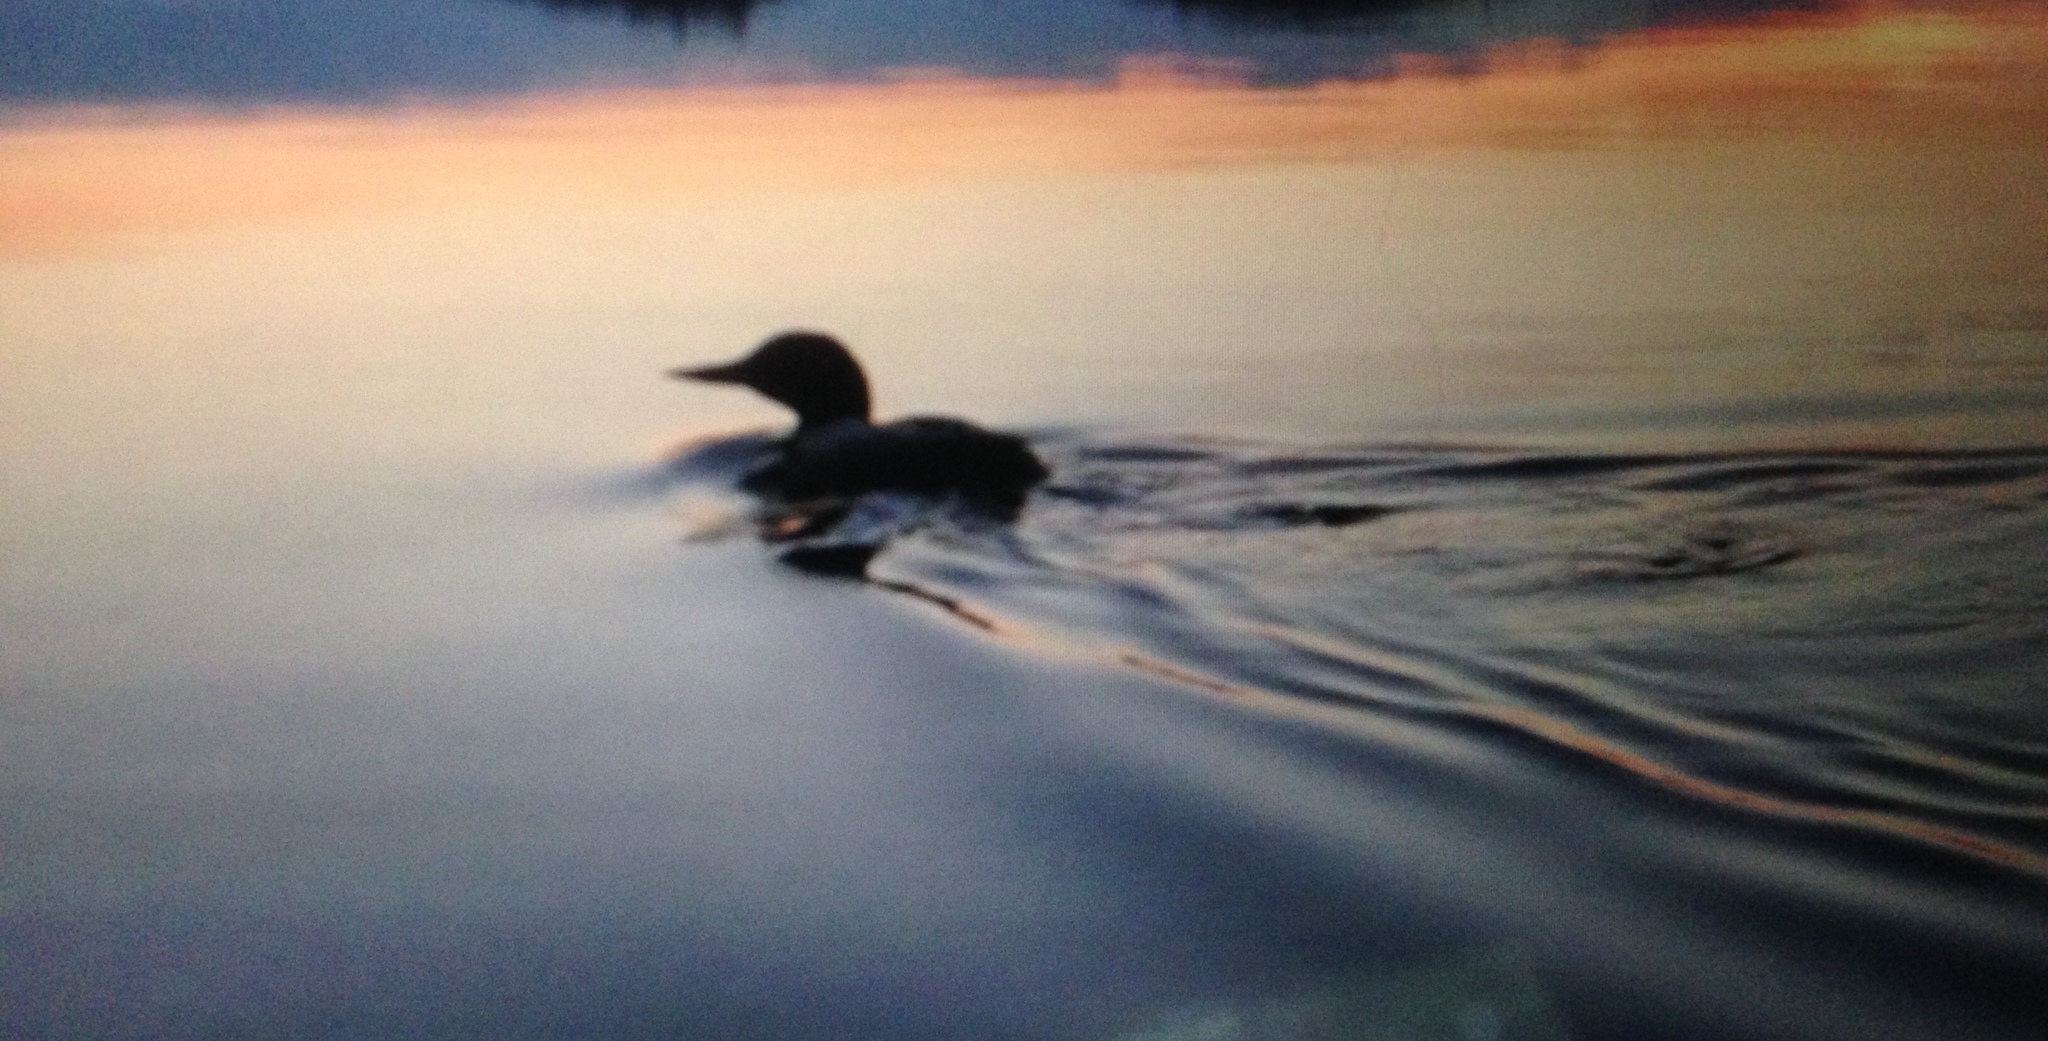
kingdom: Animalia
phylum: Chordata
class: Aves
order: Gaviiformes
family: Gaviidae
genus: Gavia
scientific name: Gavia immer
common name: Common loon
